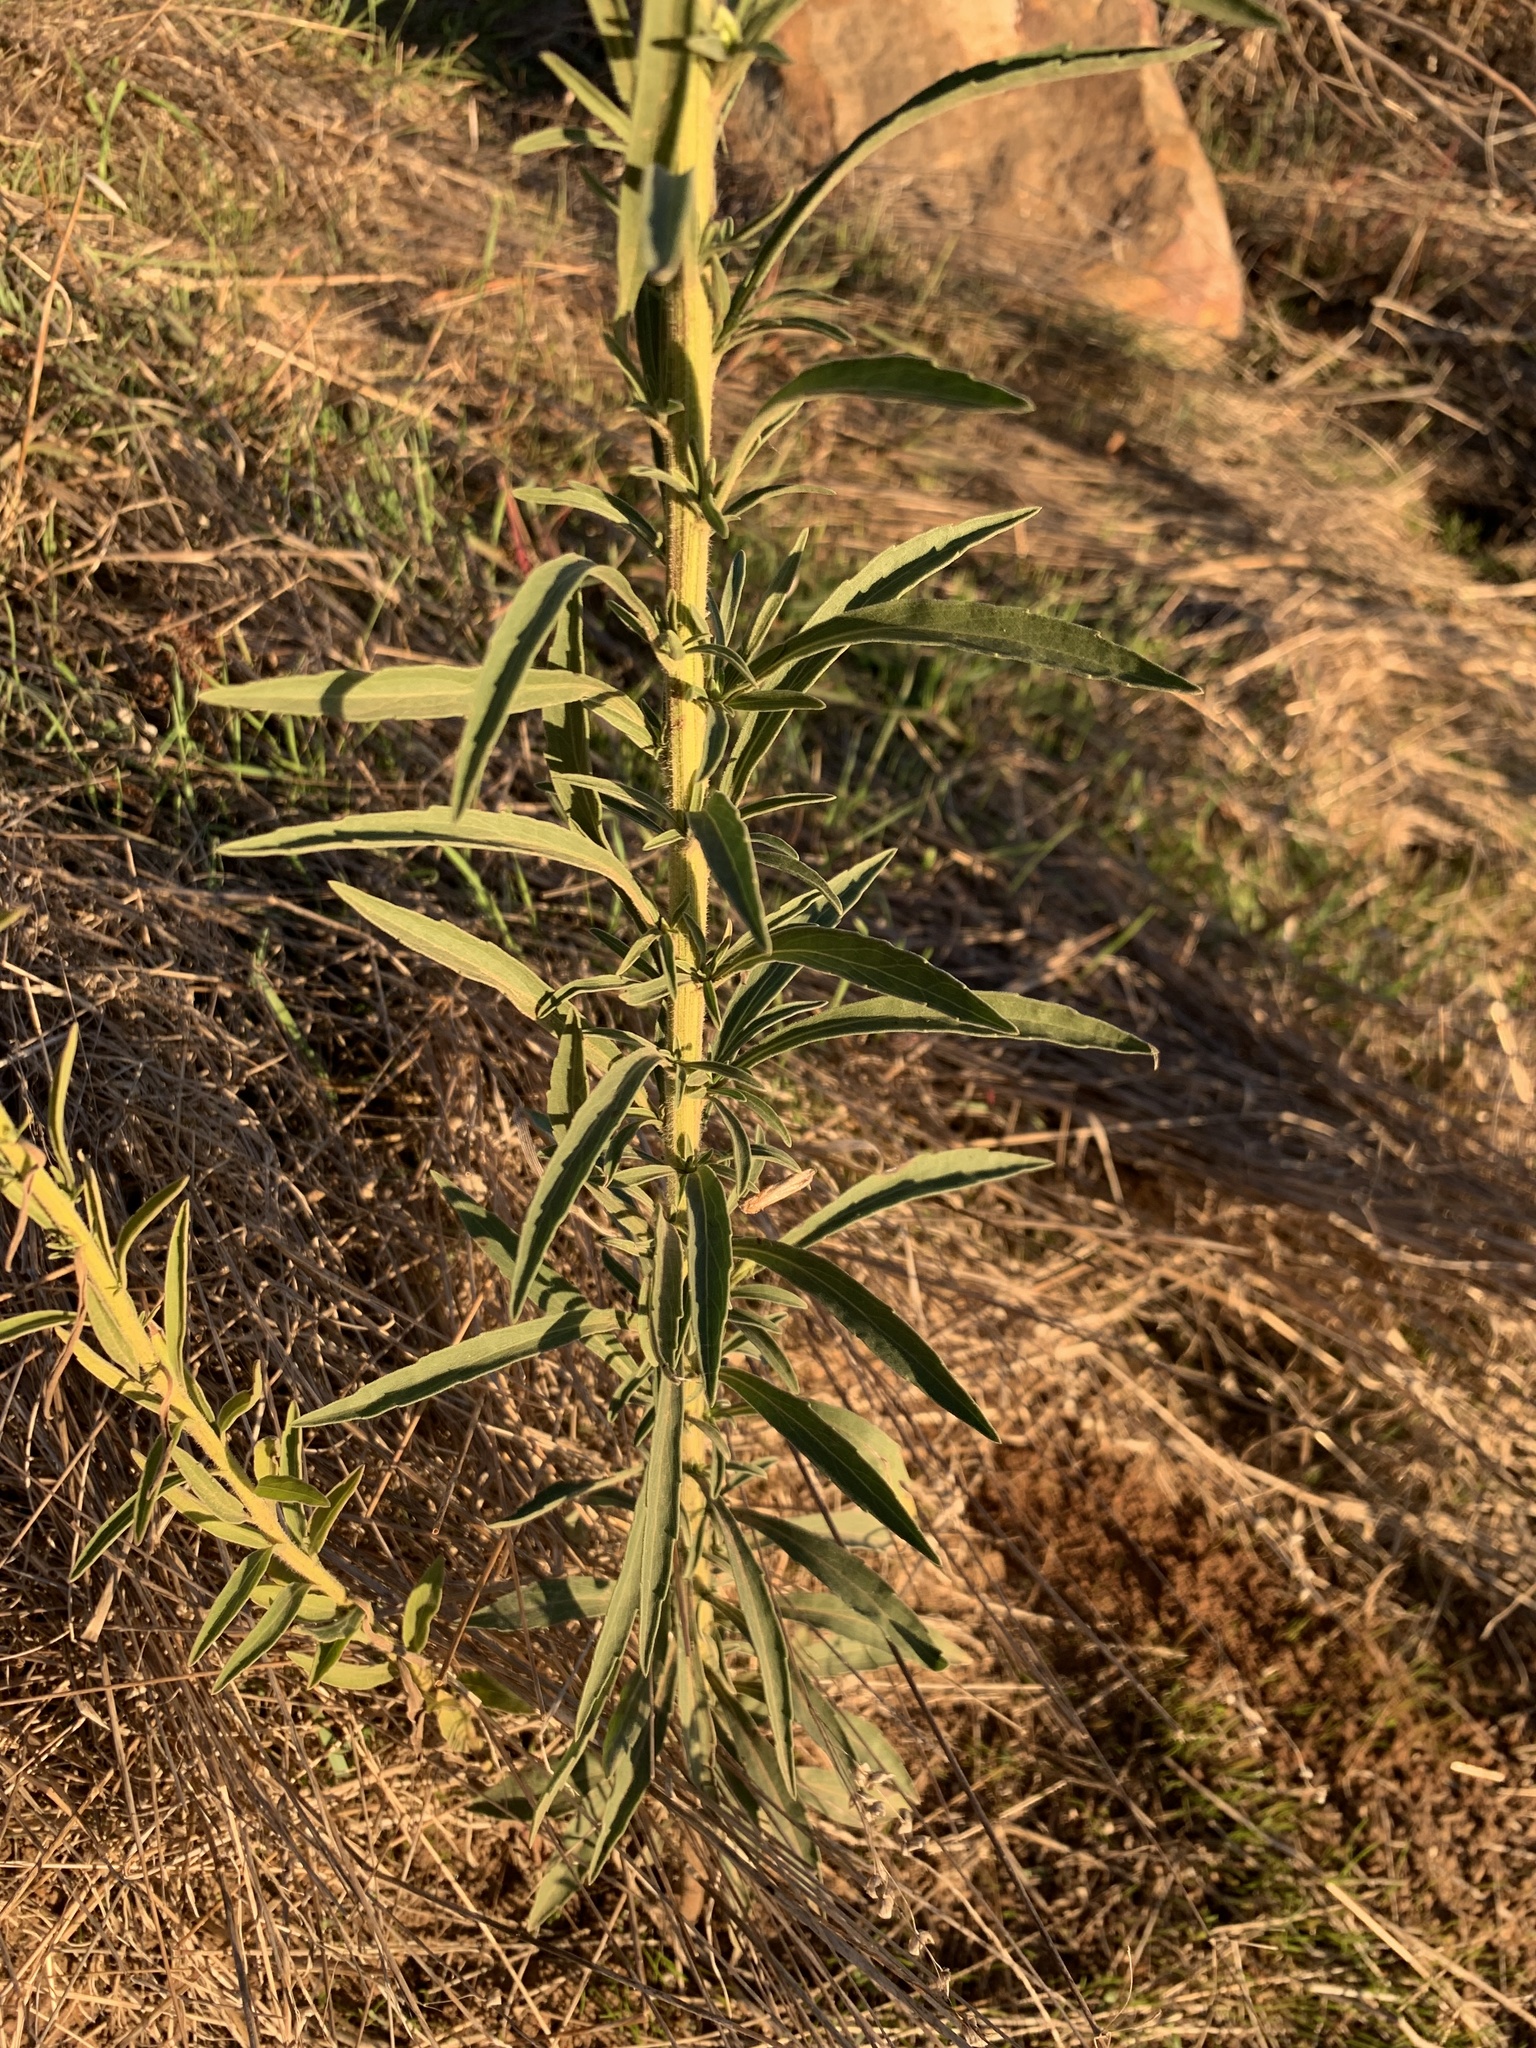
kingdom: Plantae
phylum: Tracheophyta
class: Magnoliopsida
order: Asterales
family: Asteraceae
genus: Erigeron
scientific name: Erigeron sumatrensis
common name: Daisy
